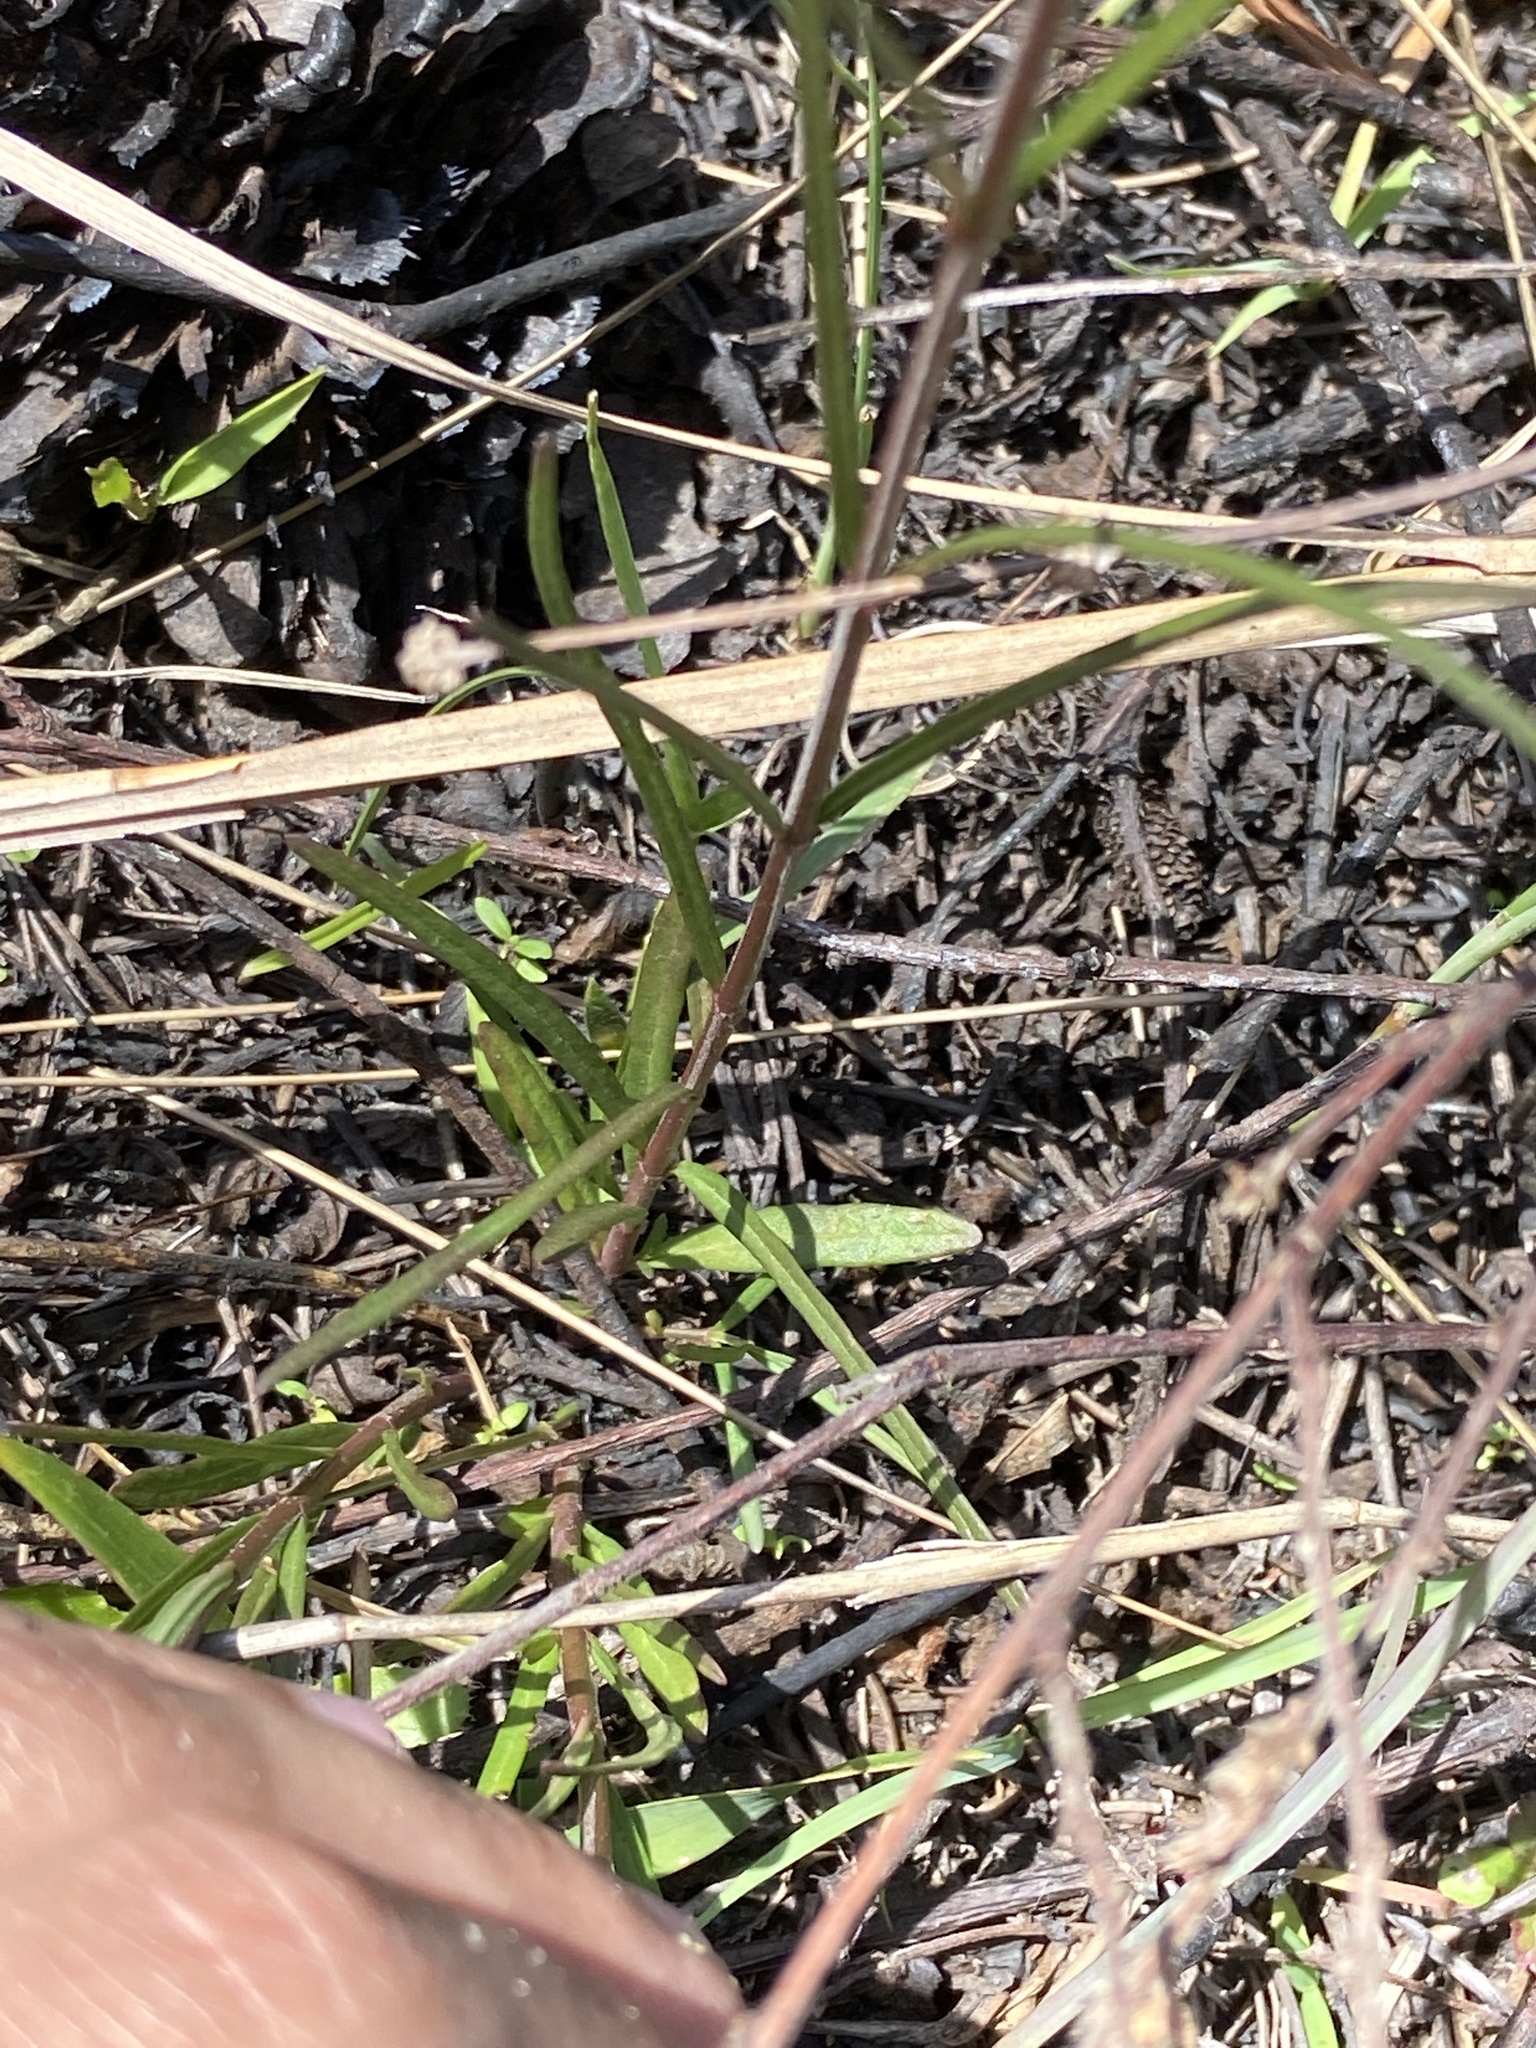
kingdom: Plantae
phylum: Tracheophyta
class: Magnoliopsida
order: Gentianales
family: Apocynaceae
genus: Asclepias
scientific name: Asclepias verticillata
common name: Eastern whorled milkweed
